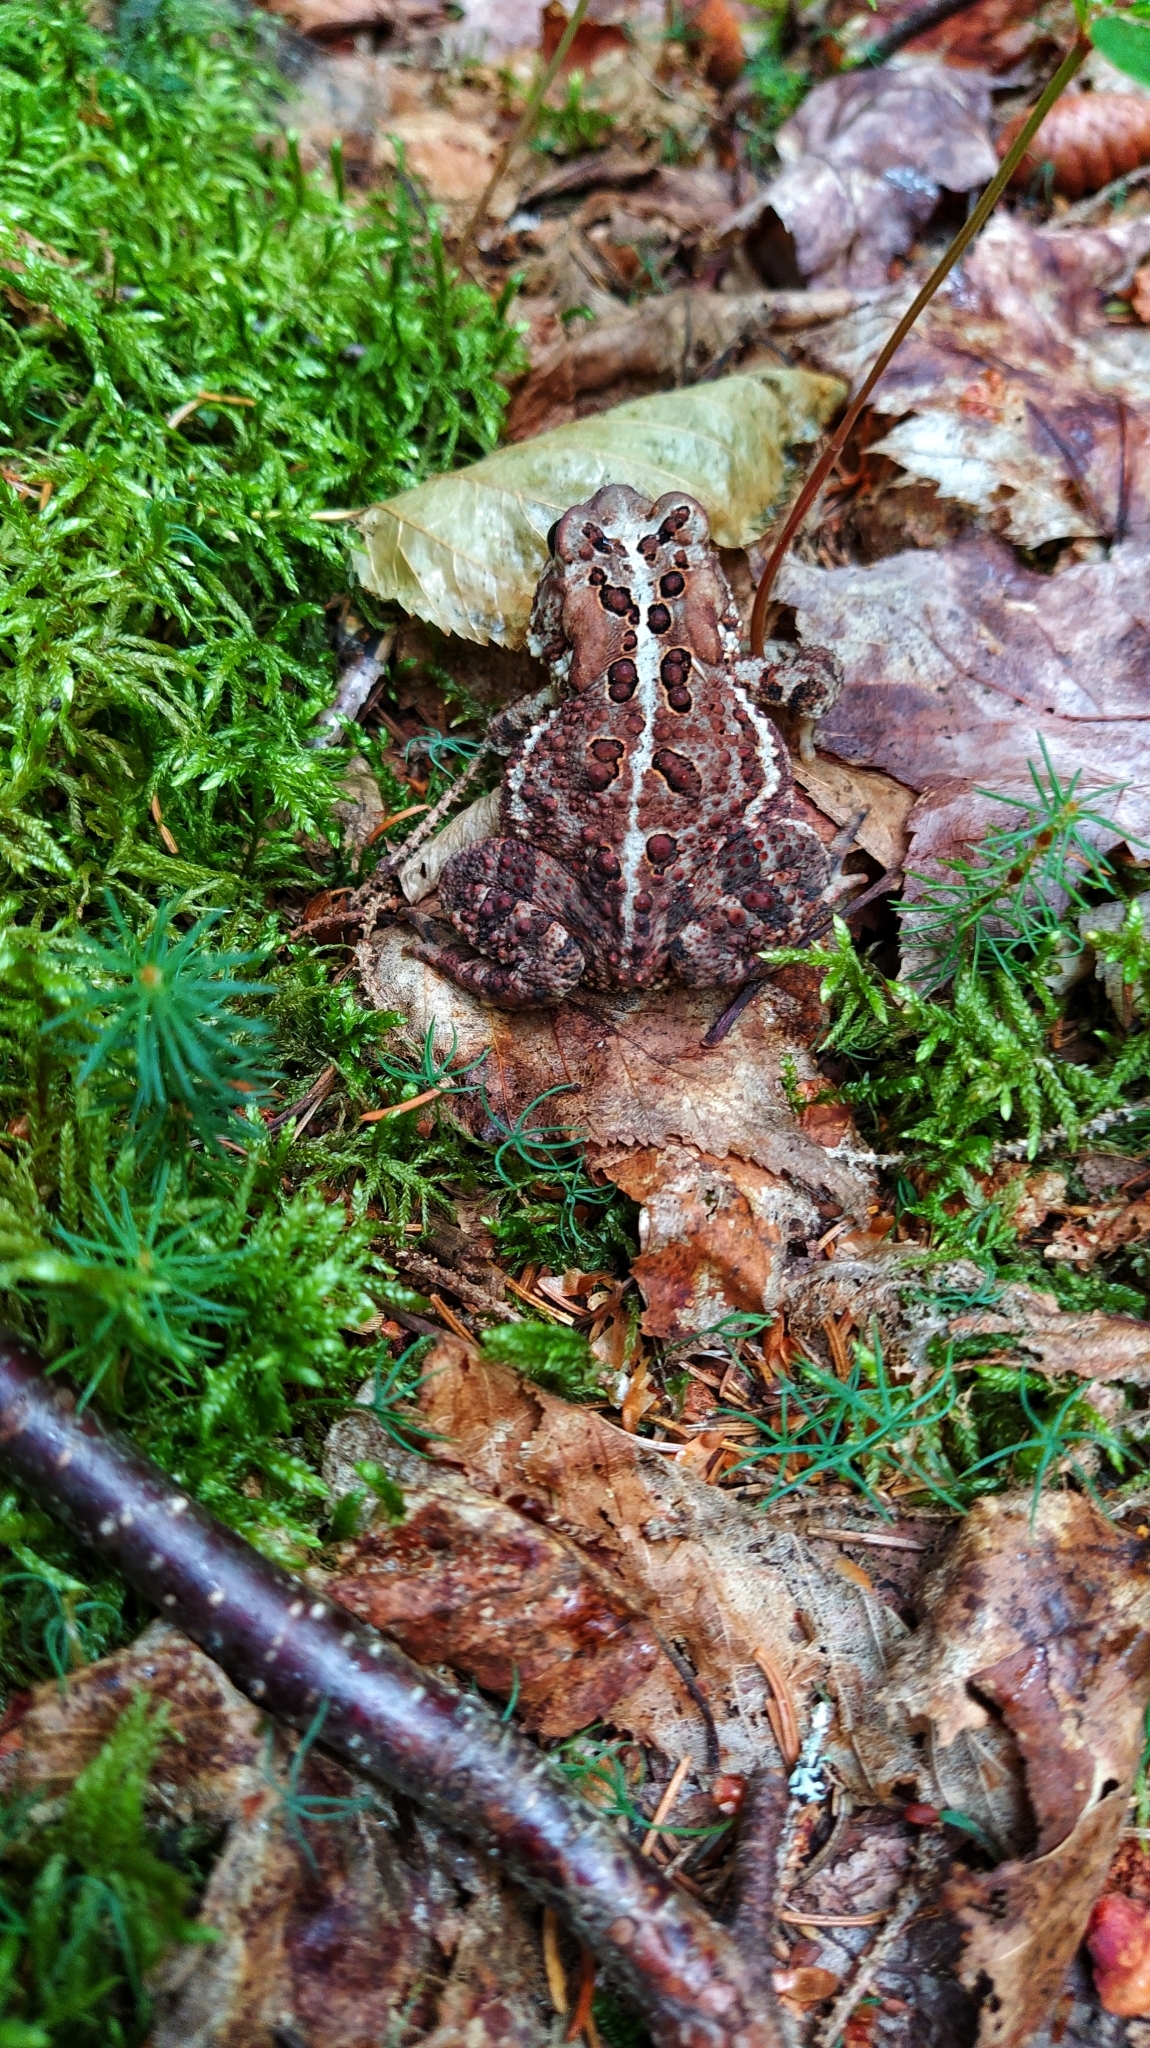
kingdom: Animalia
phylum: Chordata
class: Amphibia
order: Anura
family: Bufonidae
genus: Anaxyrus
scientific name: Anaxyrus americanus
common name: American toad
